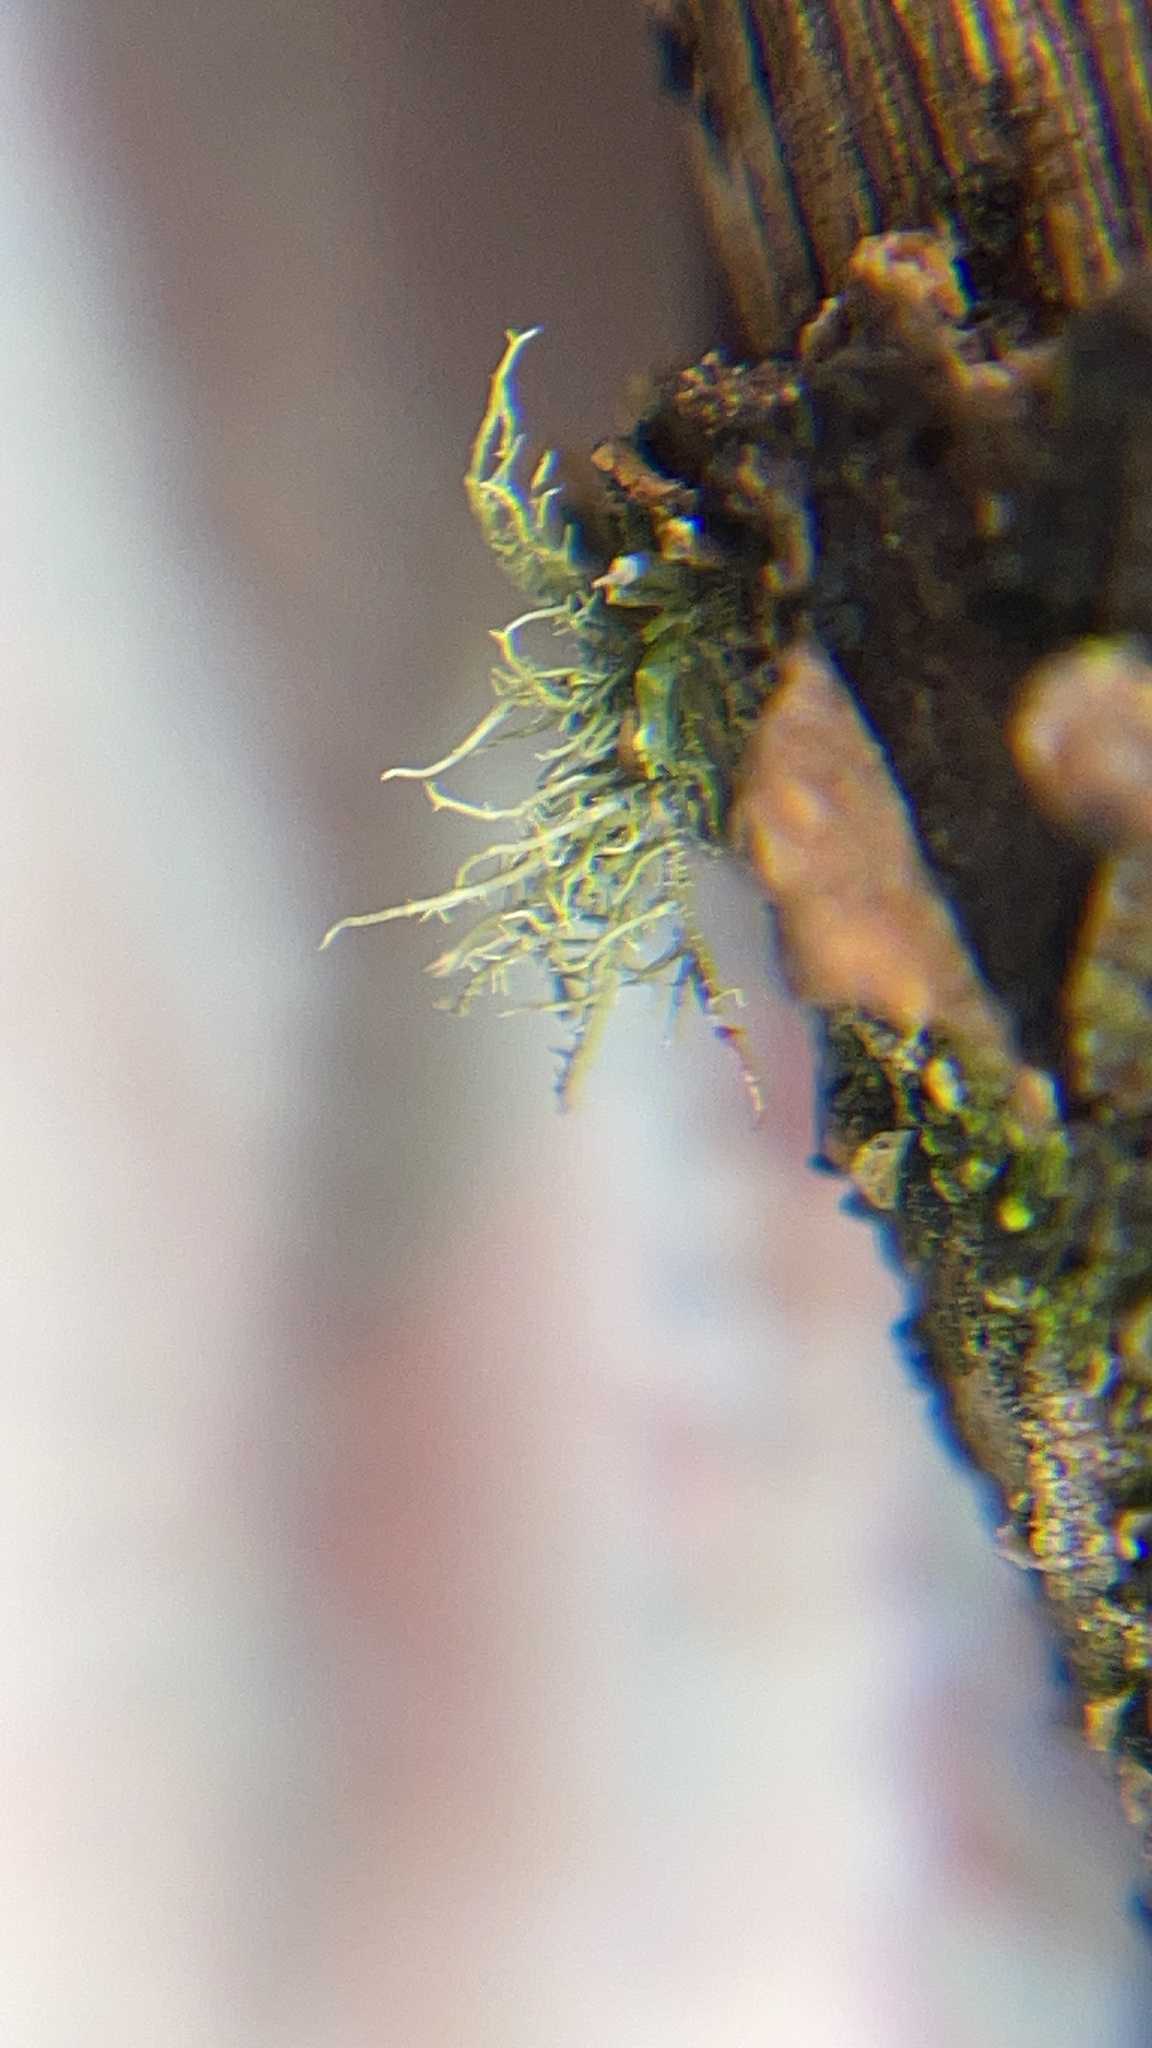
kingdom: Fungi
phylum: Ascomycota
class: Lecanoromycetes
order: Lecanorales
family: Parmeliaceae
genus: Usnea
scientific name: Usnea
